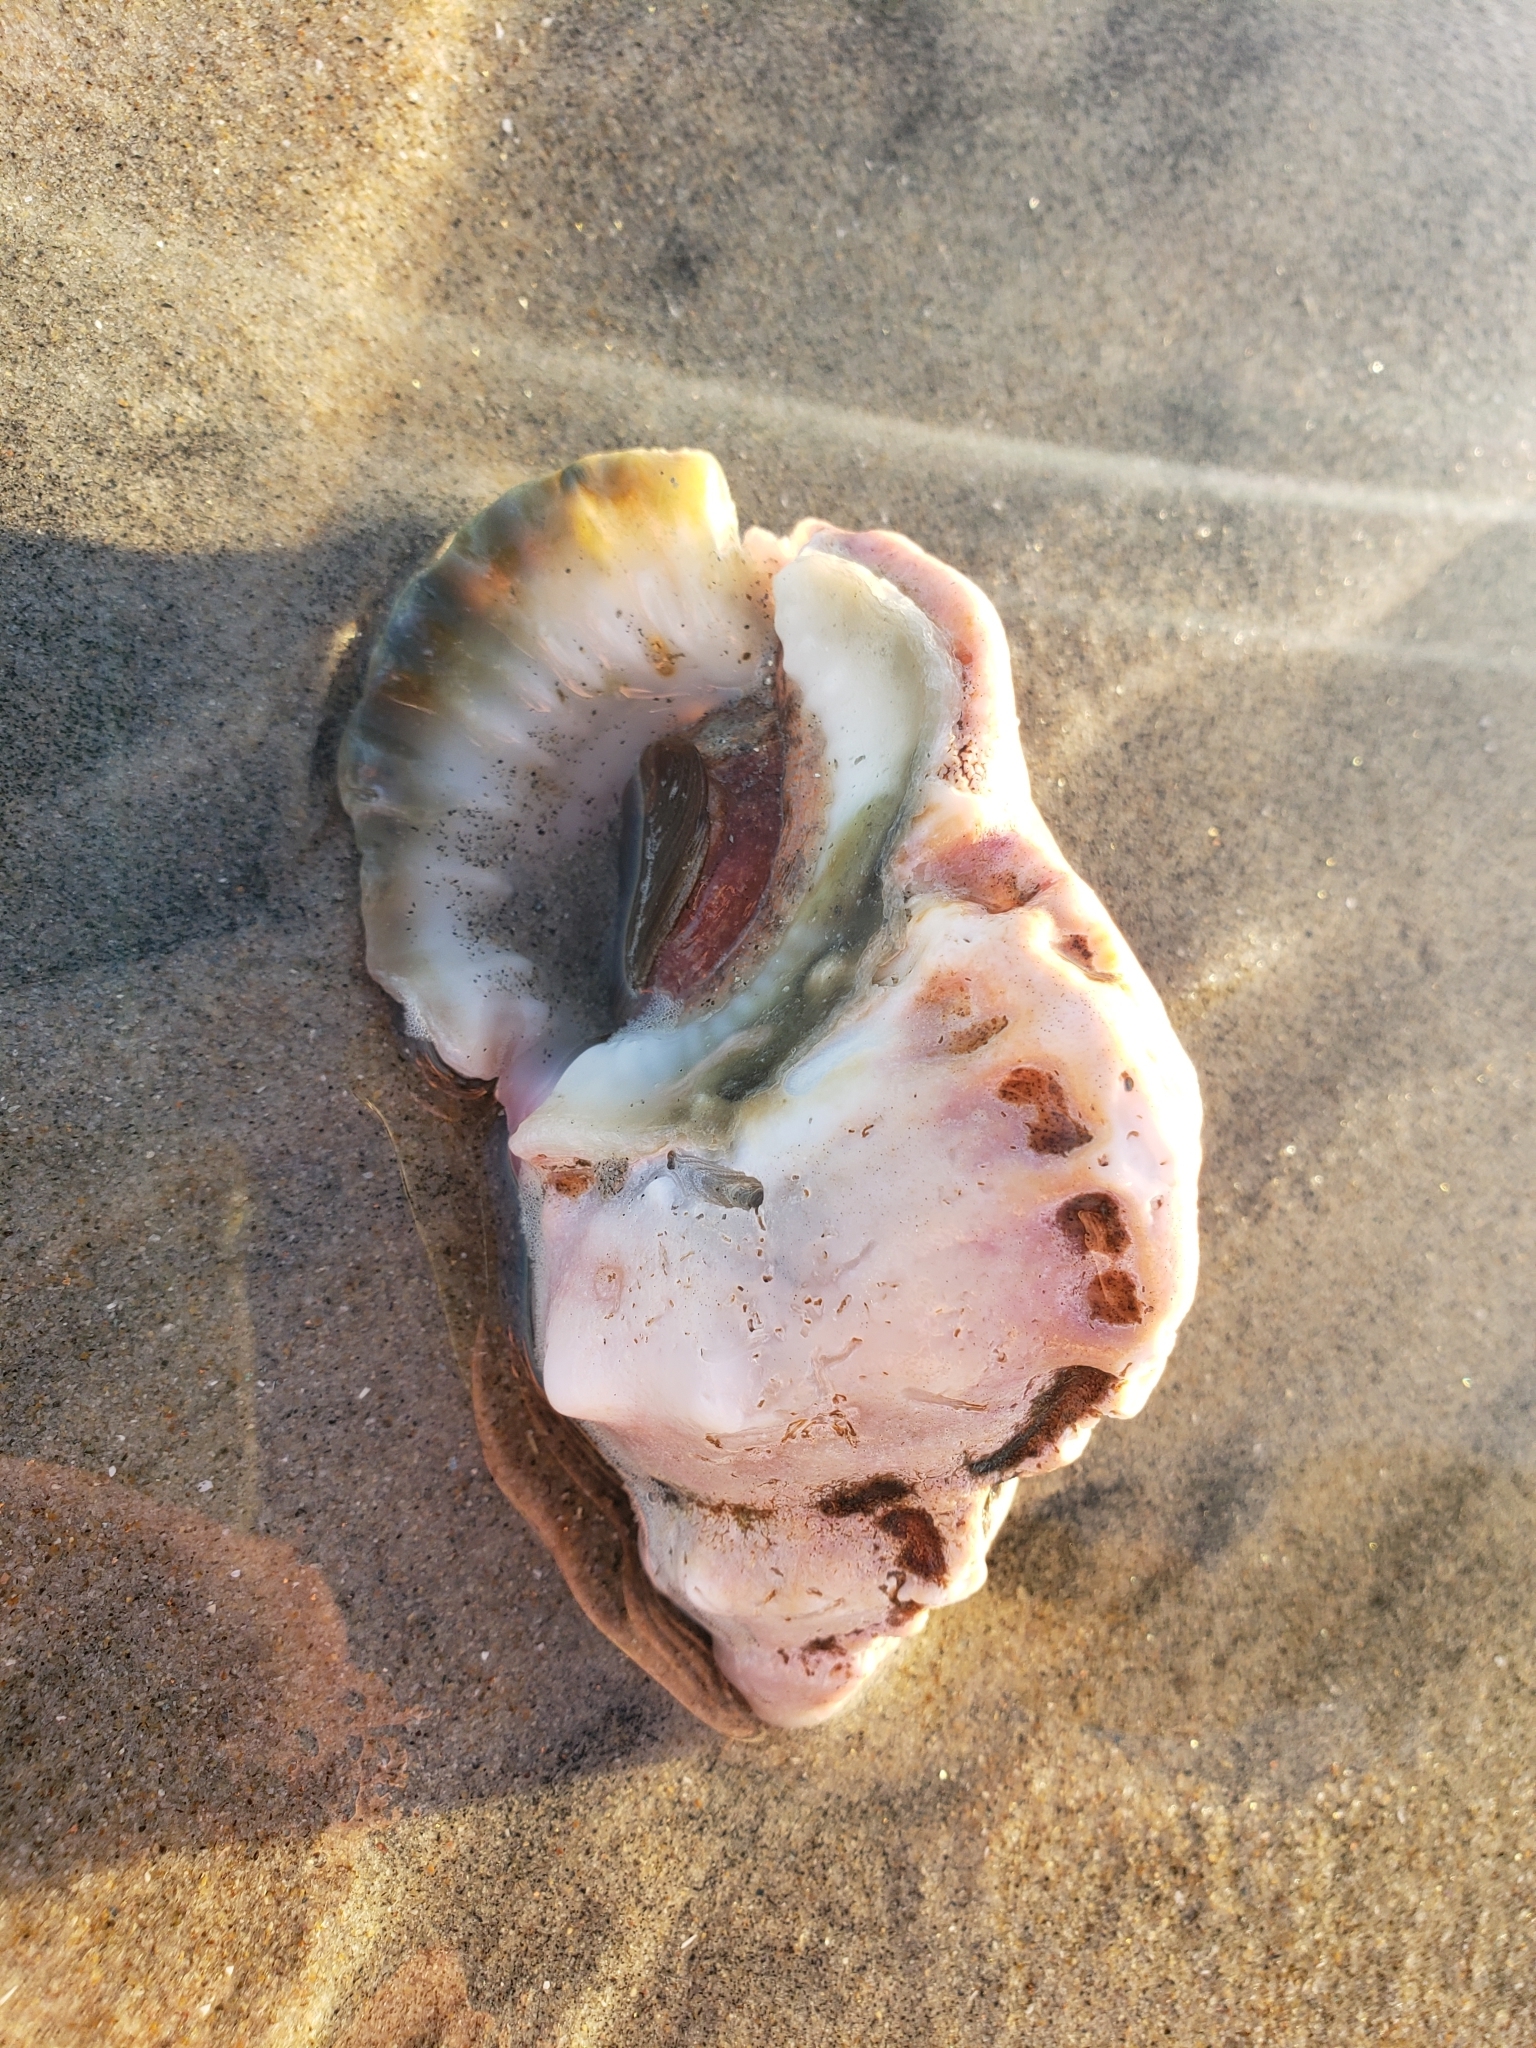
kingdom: Animalia
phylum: Mollusca
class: Gastropoda
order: Littorinimorpha
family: Bursidae
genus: Crossata
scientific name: Crossata californica
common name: California frogsnail
